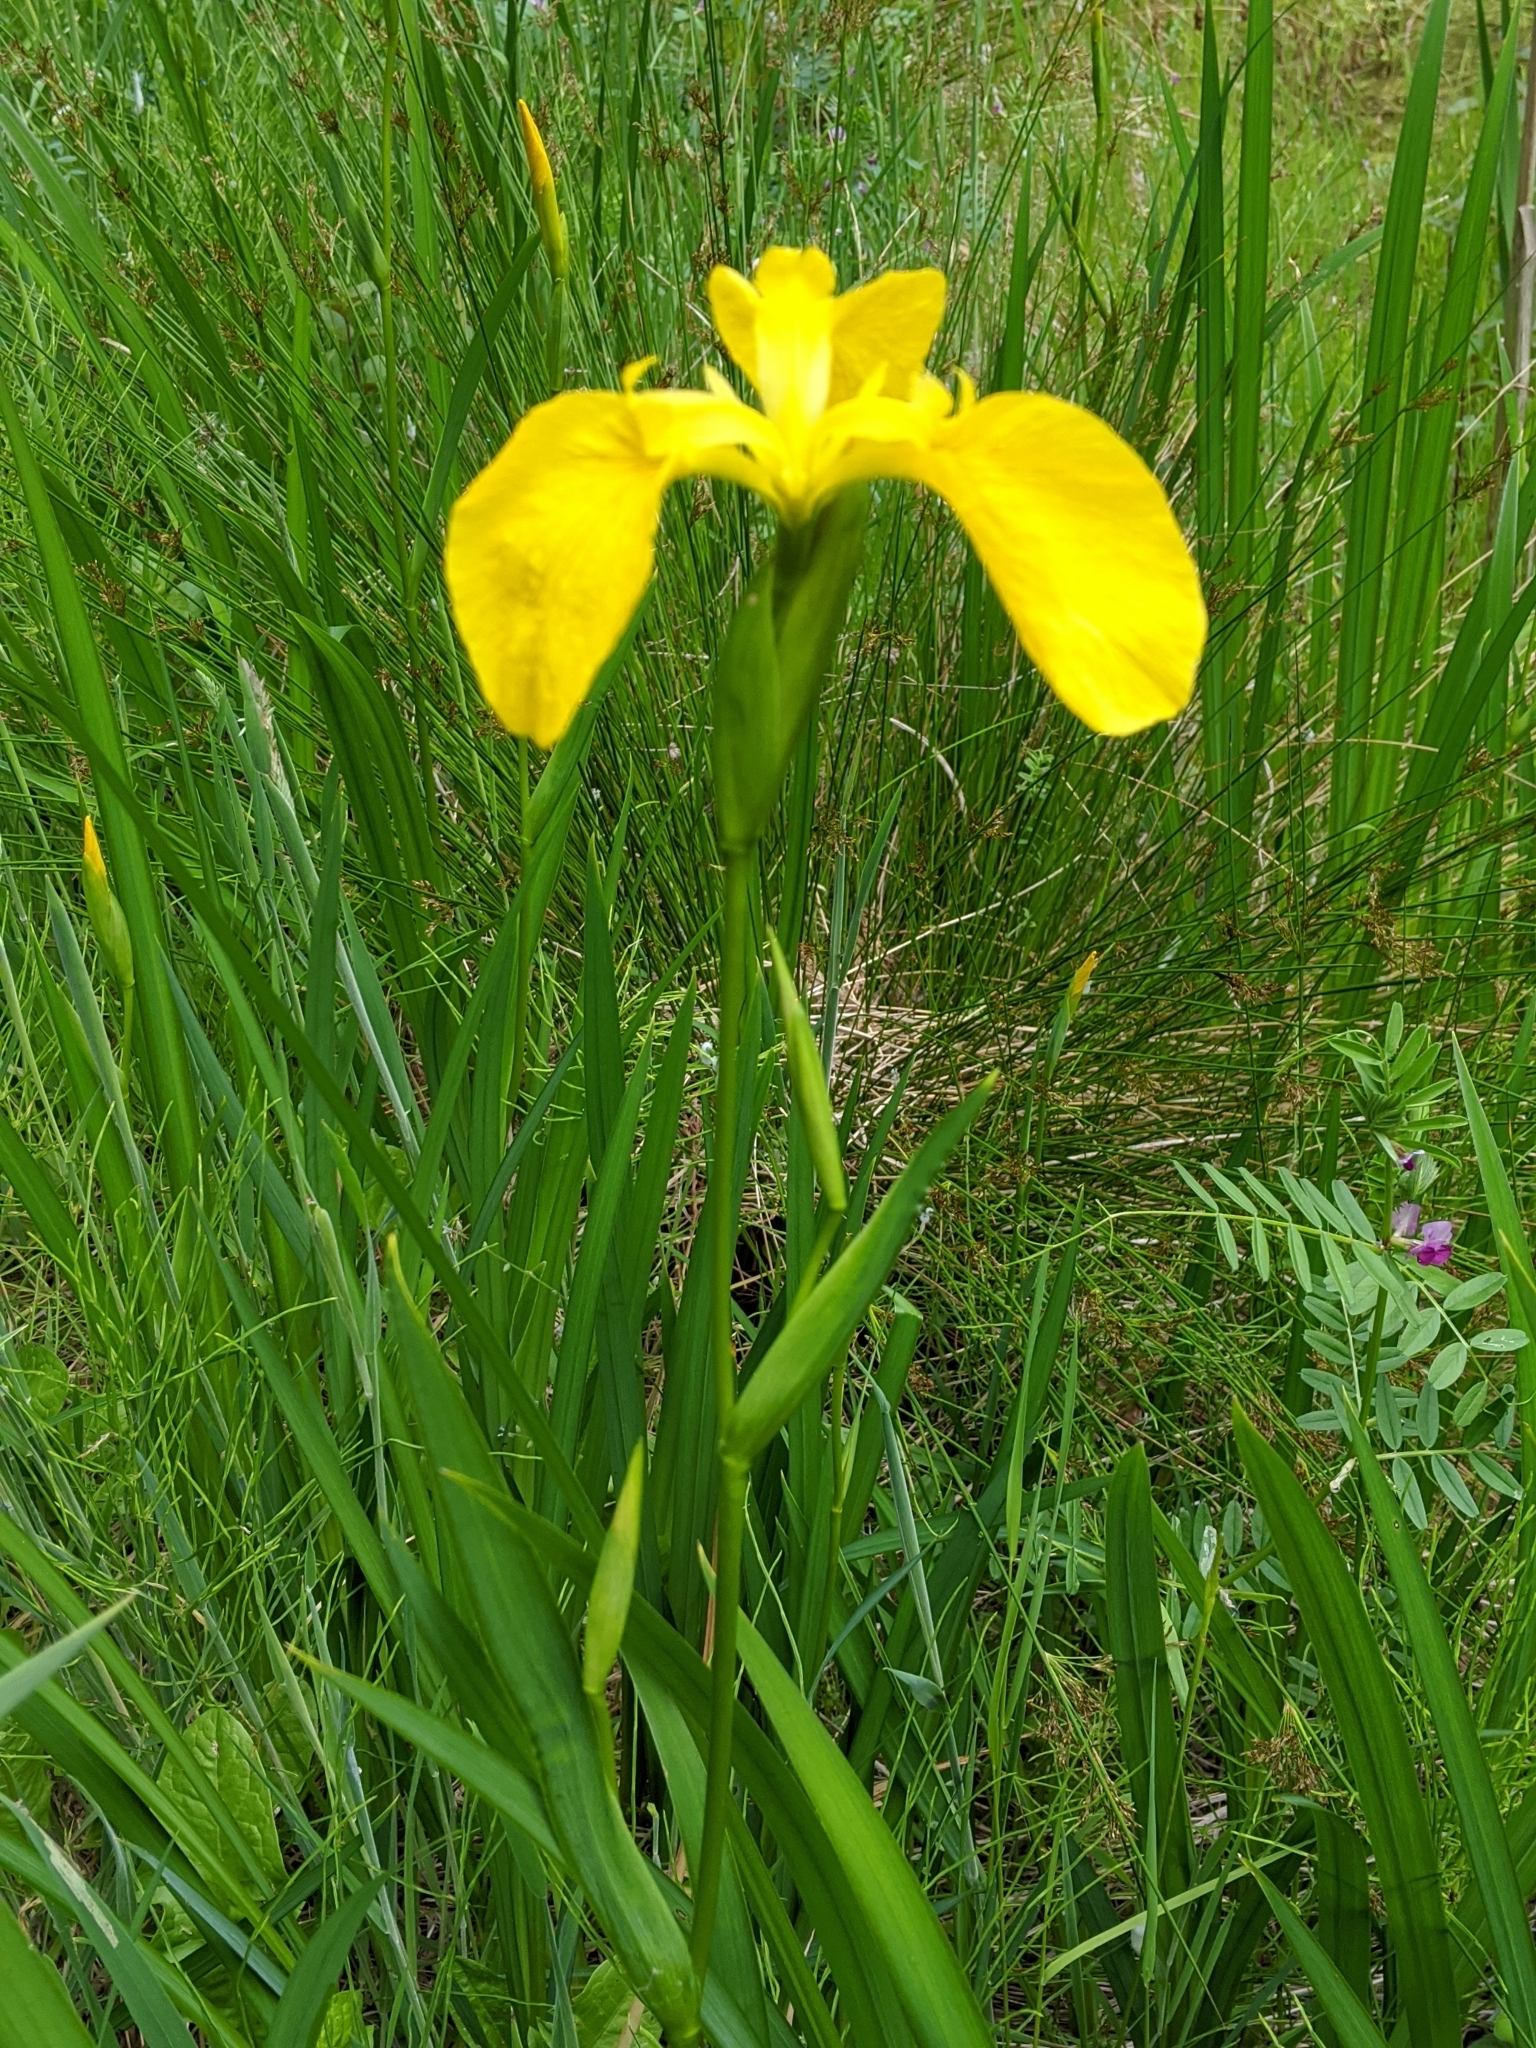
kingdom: Plantae
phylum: Tracheophyta
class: Liliopsida
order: Asparagales
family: Iridaceae
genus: Iris
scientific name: Iris pseudacorus
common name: Yellow flag
